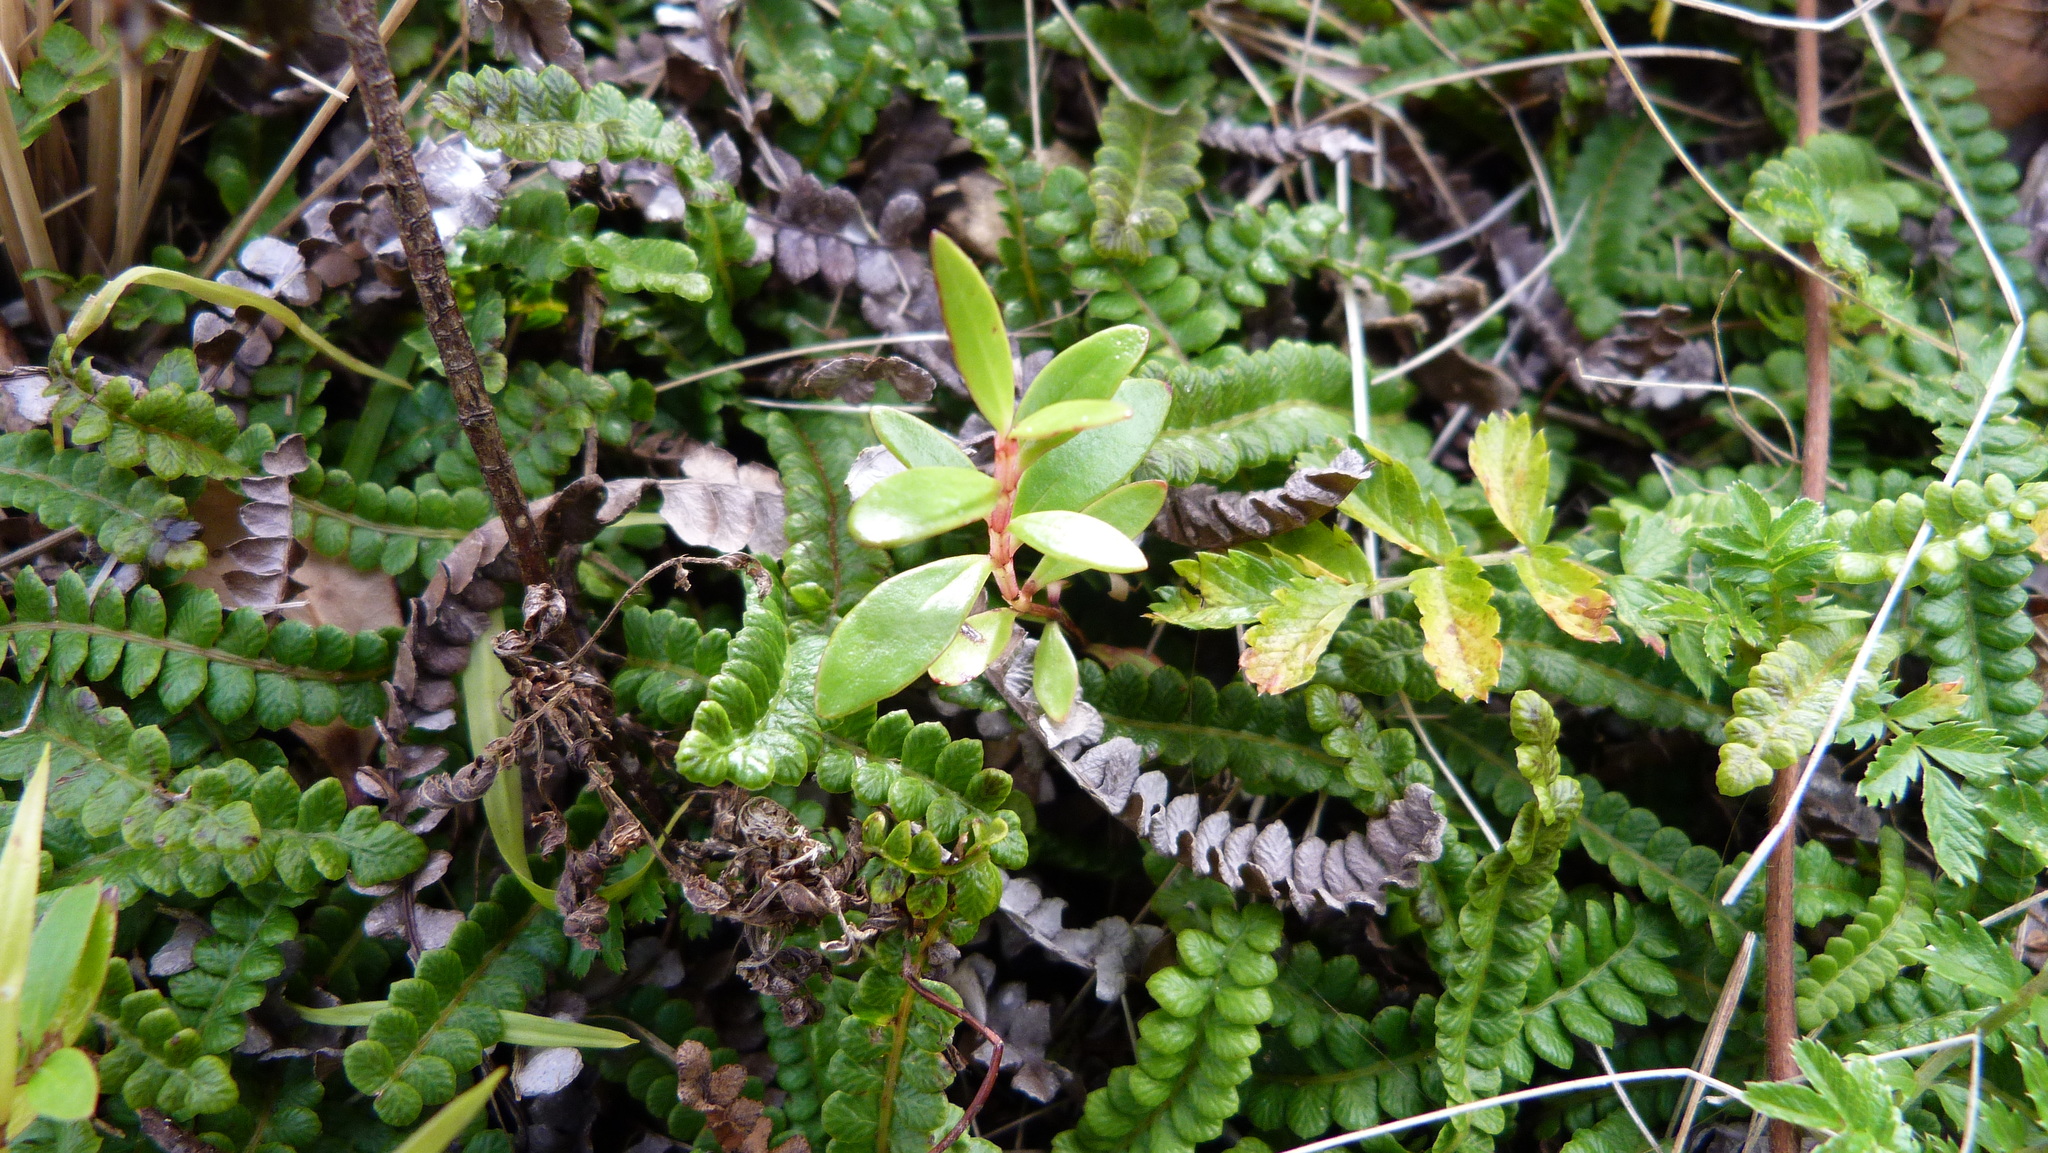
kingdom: Plantae
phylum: Tracheophyta
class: Magnoliopsida
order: Myrtales
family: Myrtaceae
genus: Metrosideros
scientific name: Metrosideros excelsa
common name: New zealand christmastree
